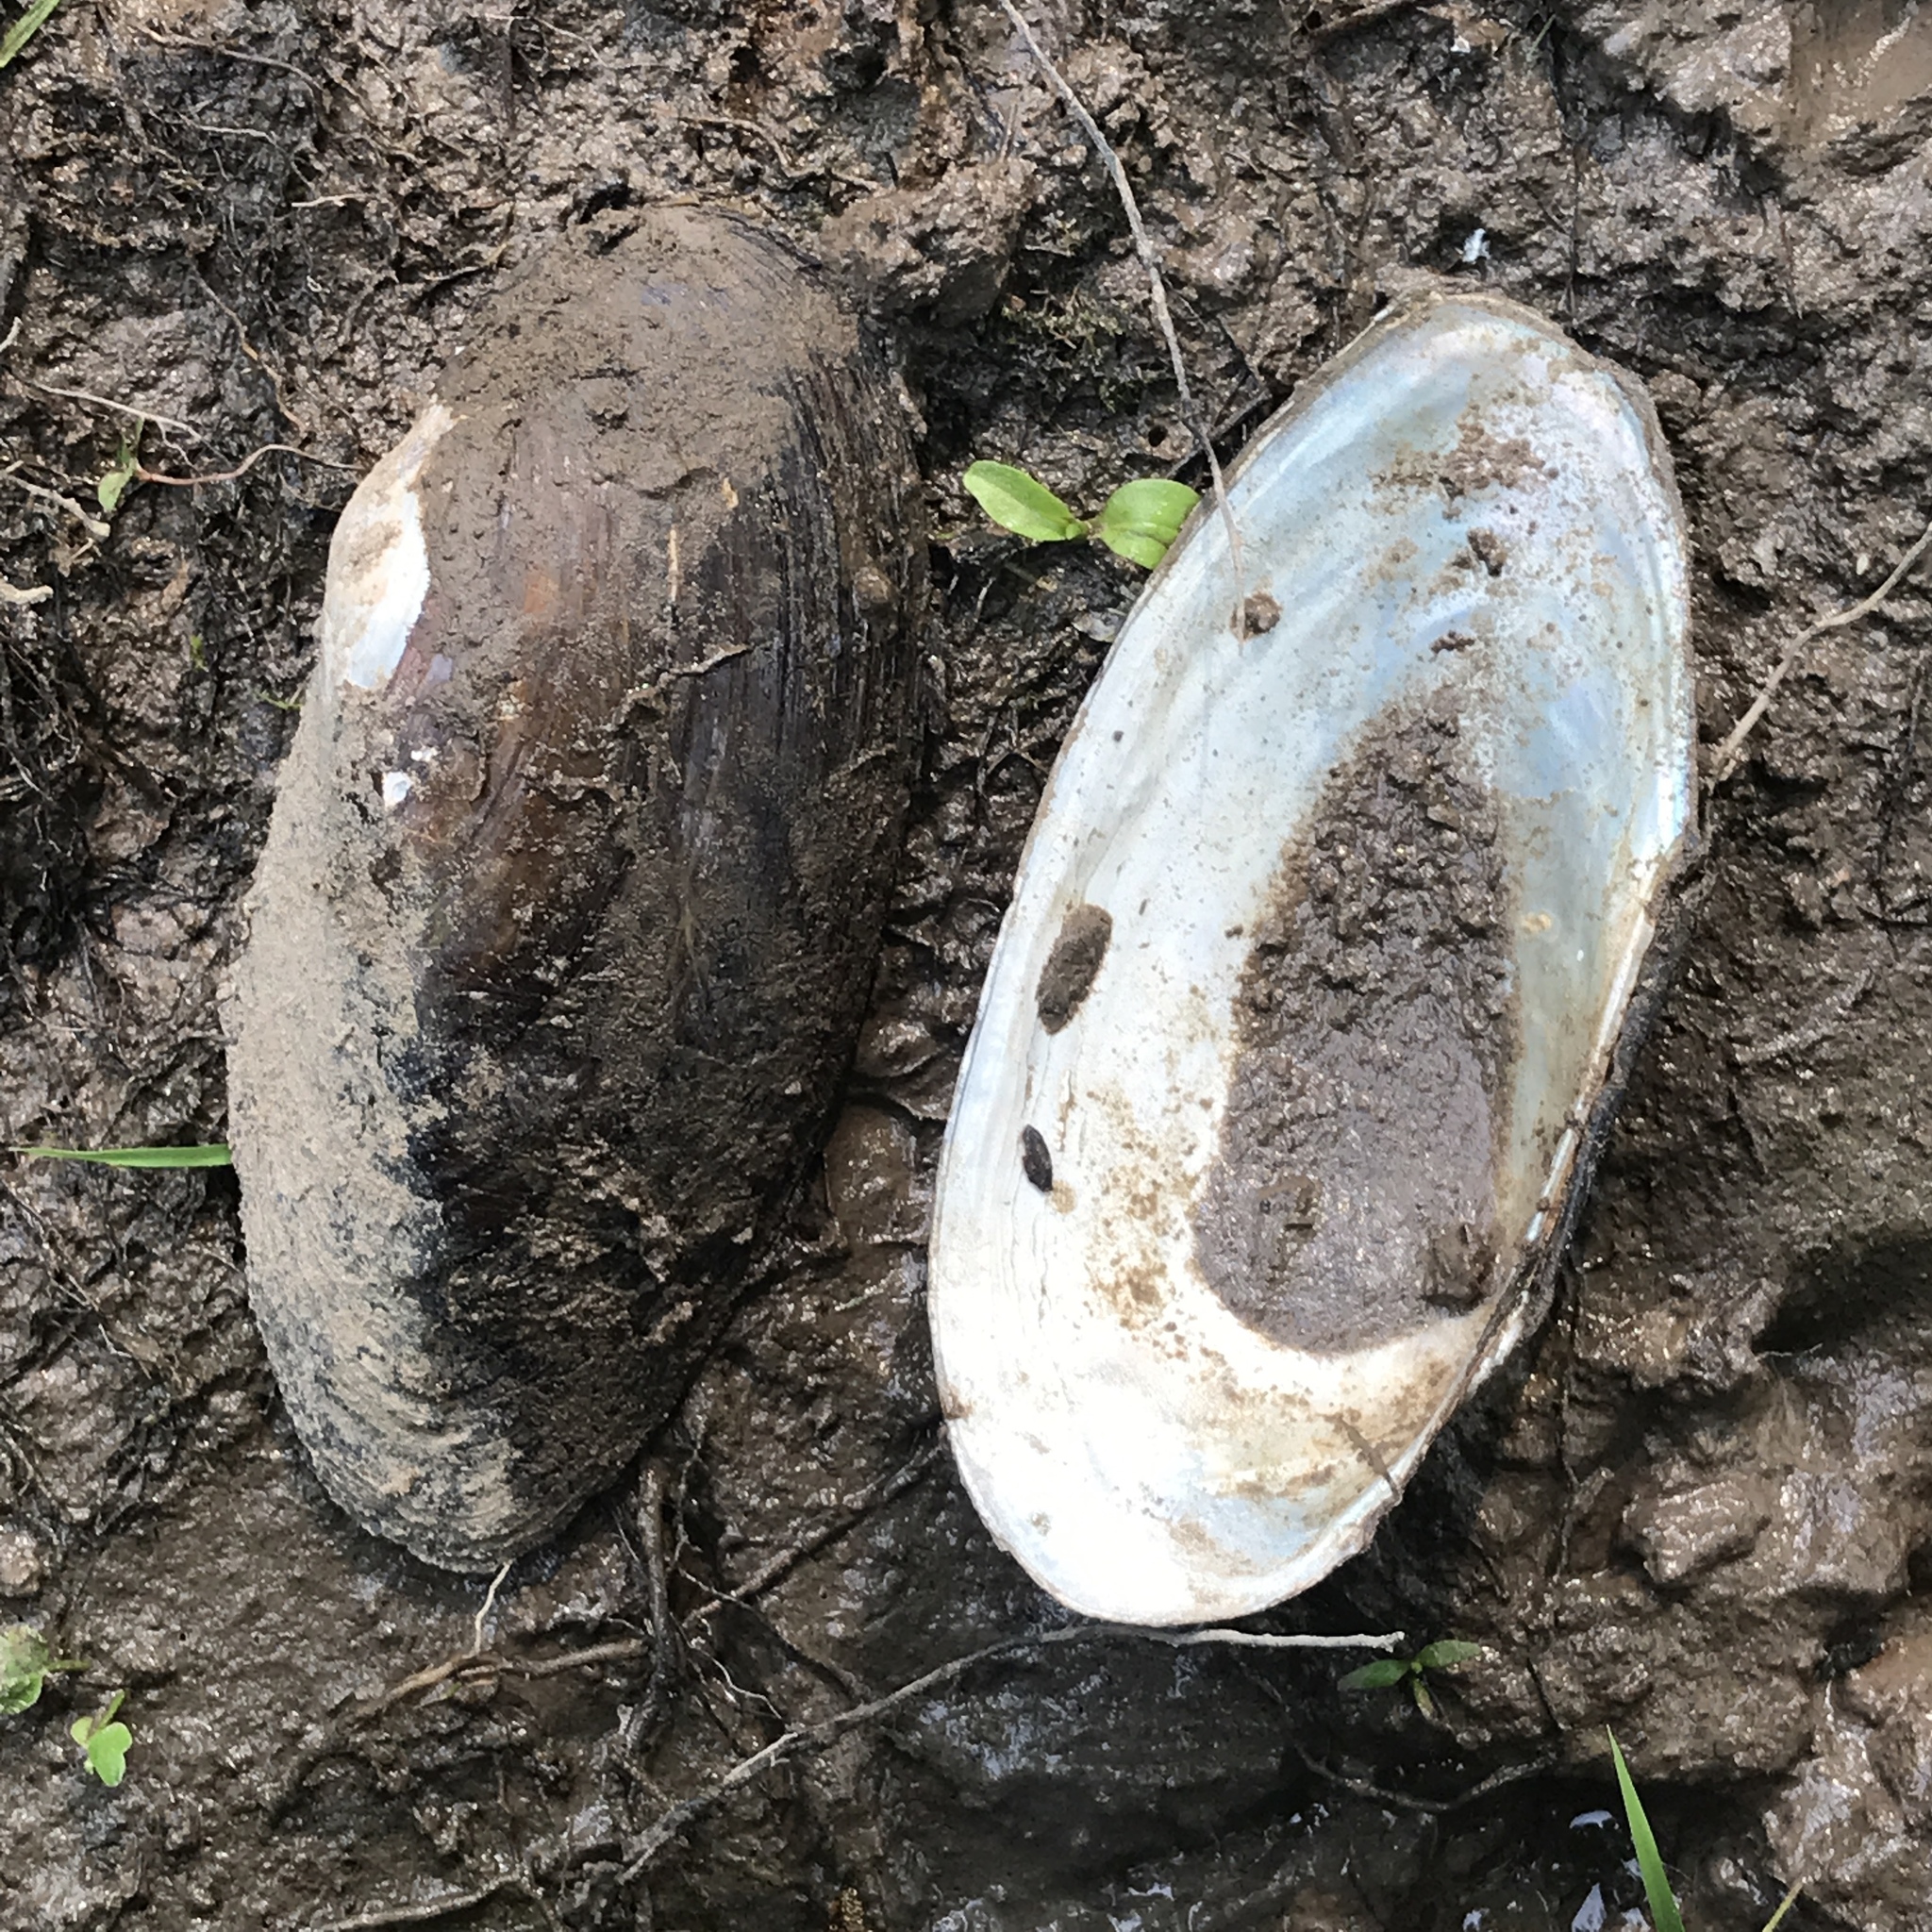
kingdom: Animalia
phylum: Mollusca
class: Bivalvia
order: Unionida
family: Unionidae
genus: Pyganodon
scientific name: Pyganodon grandis
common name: Giant floater
